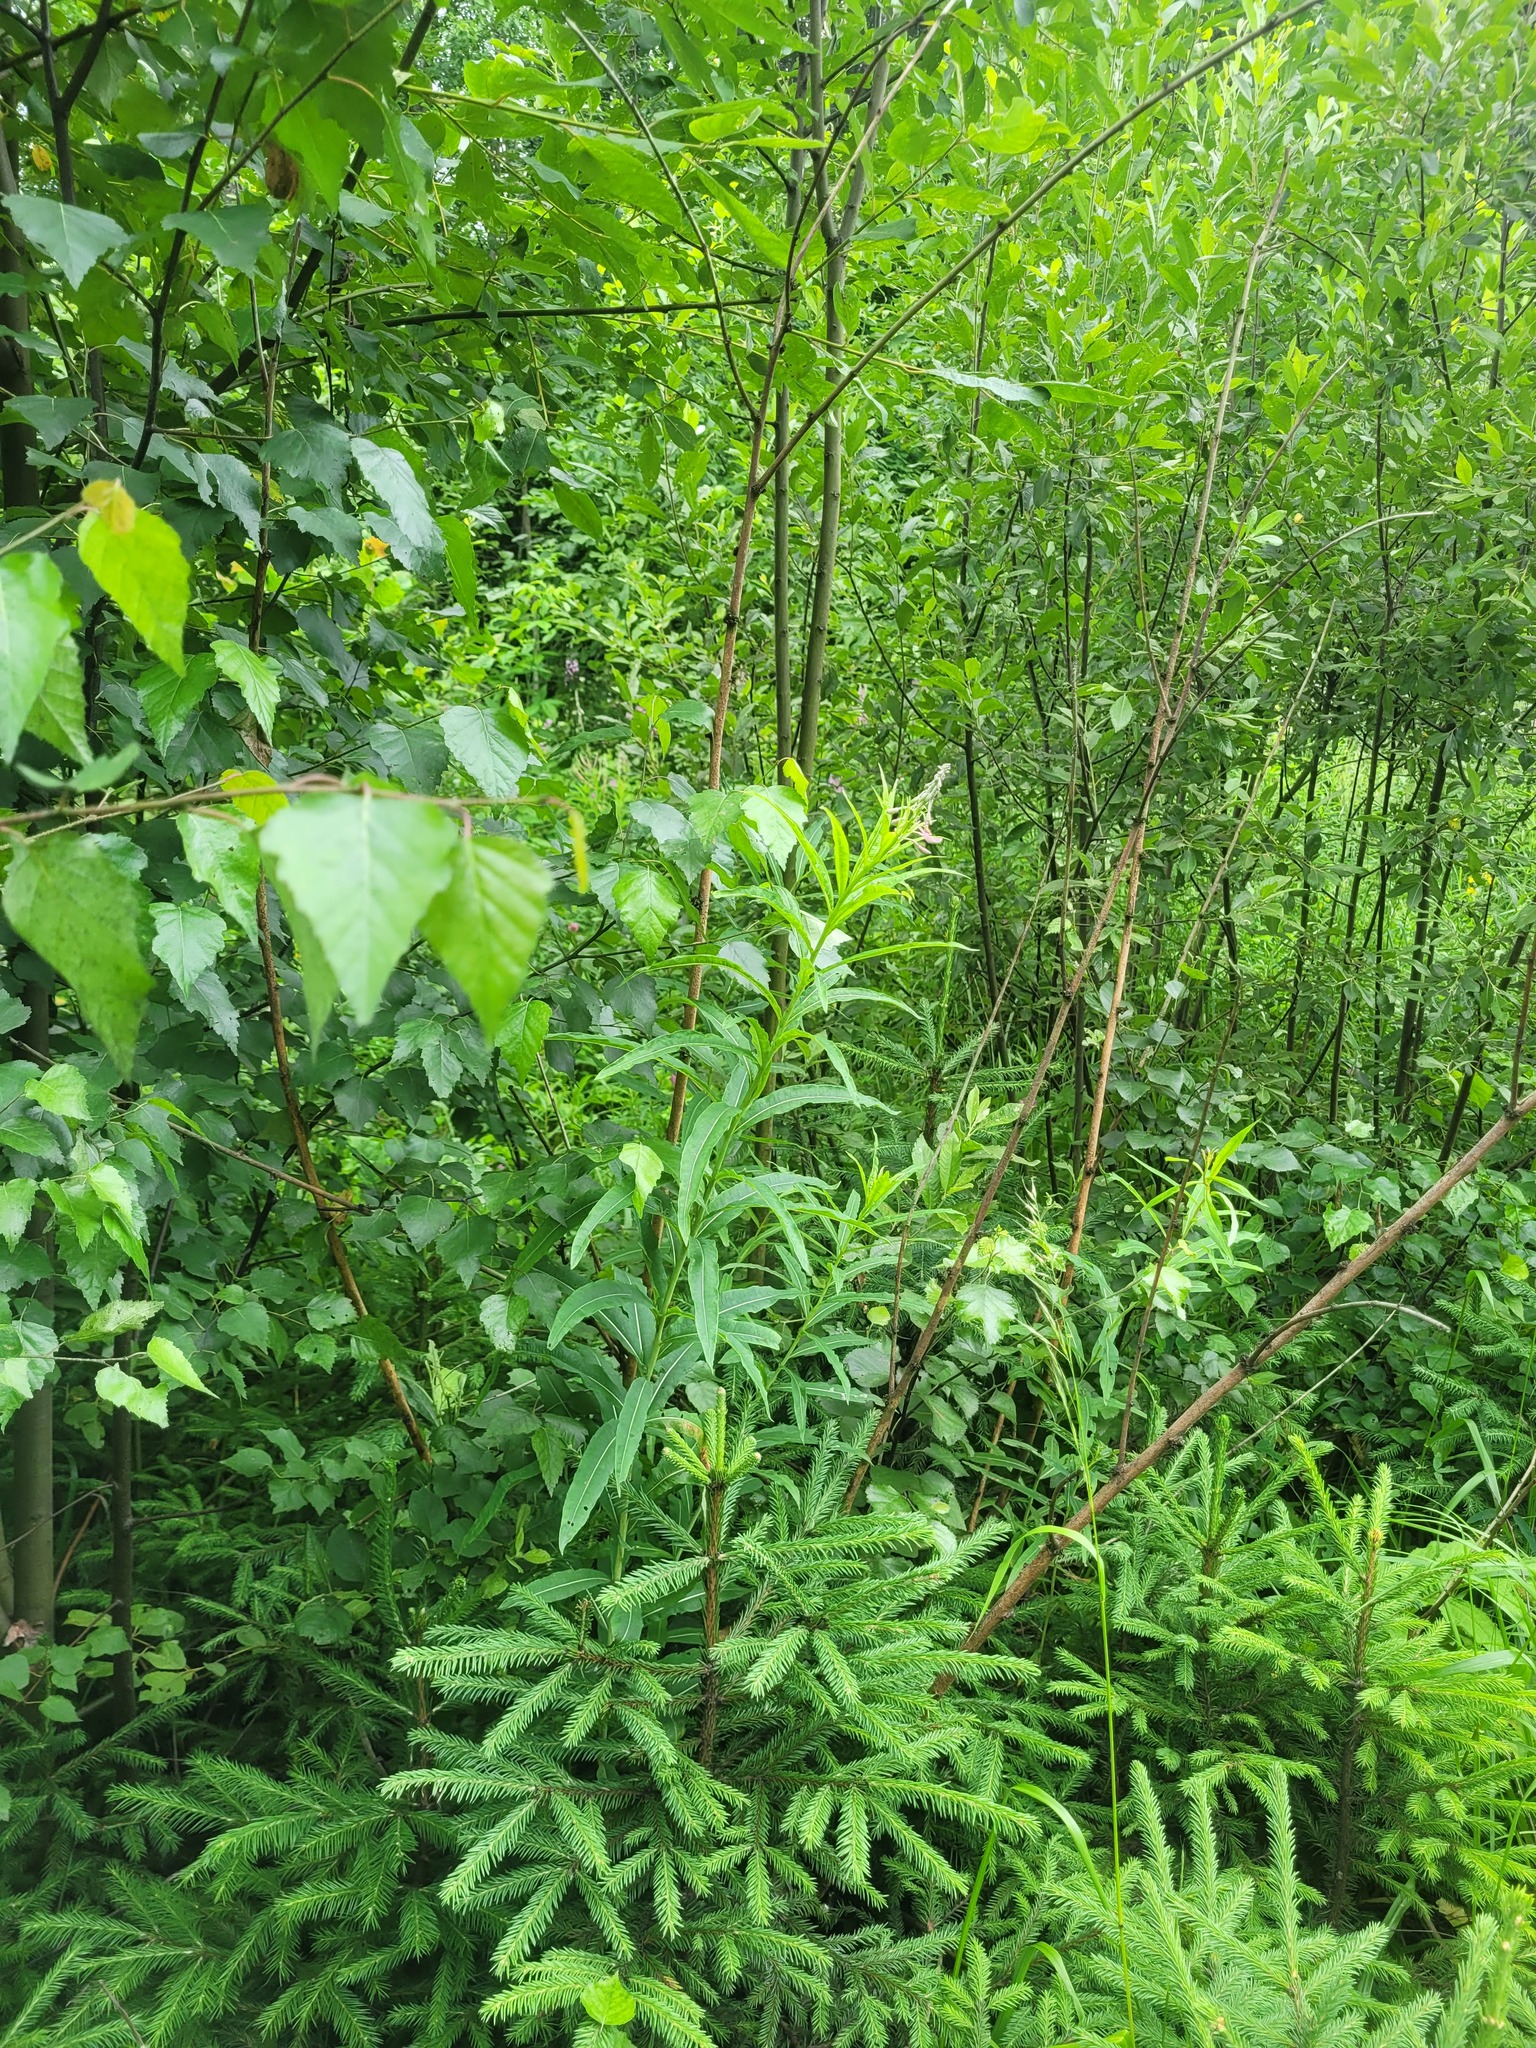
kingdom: Plantae
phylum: Tracheophyta
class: Magnoliopsida
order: Myrtales
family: Onagraceae
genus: Chamaenerion
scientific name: Chamaenerion angustifolium
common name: Fireweed
